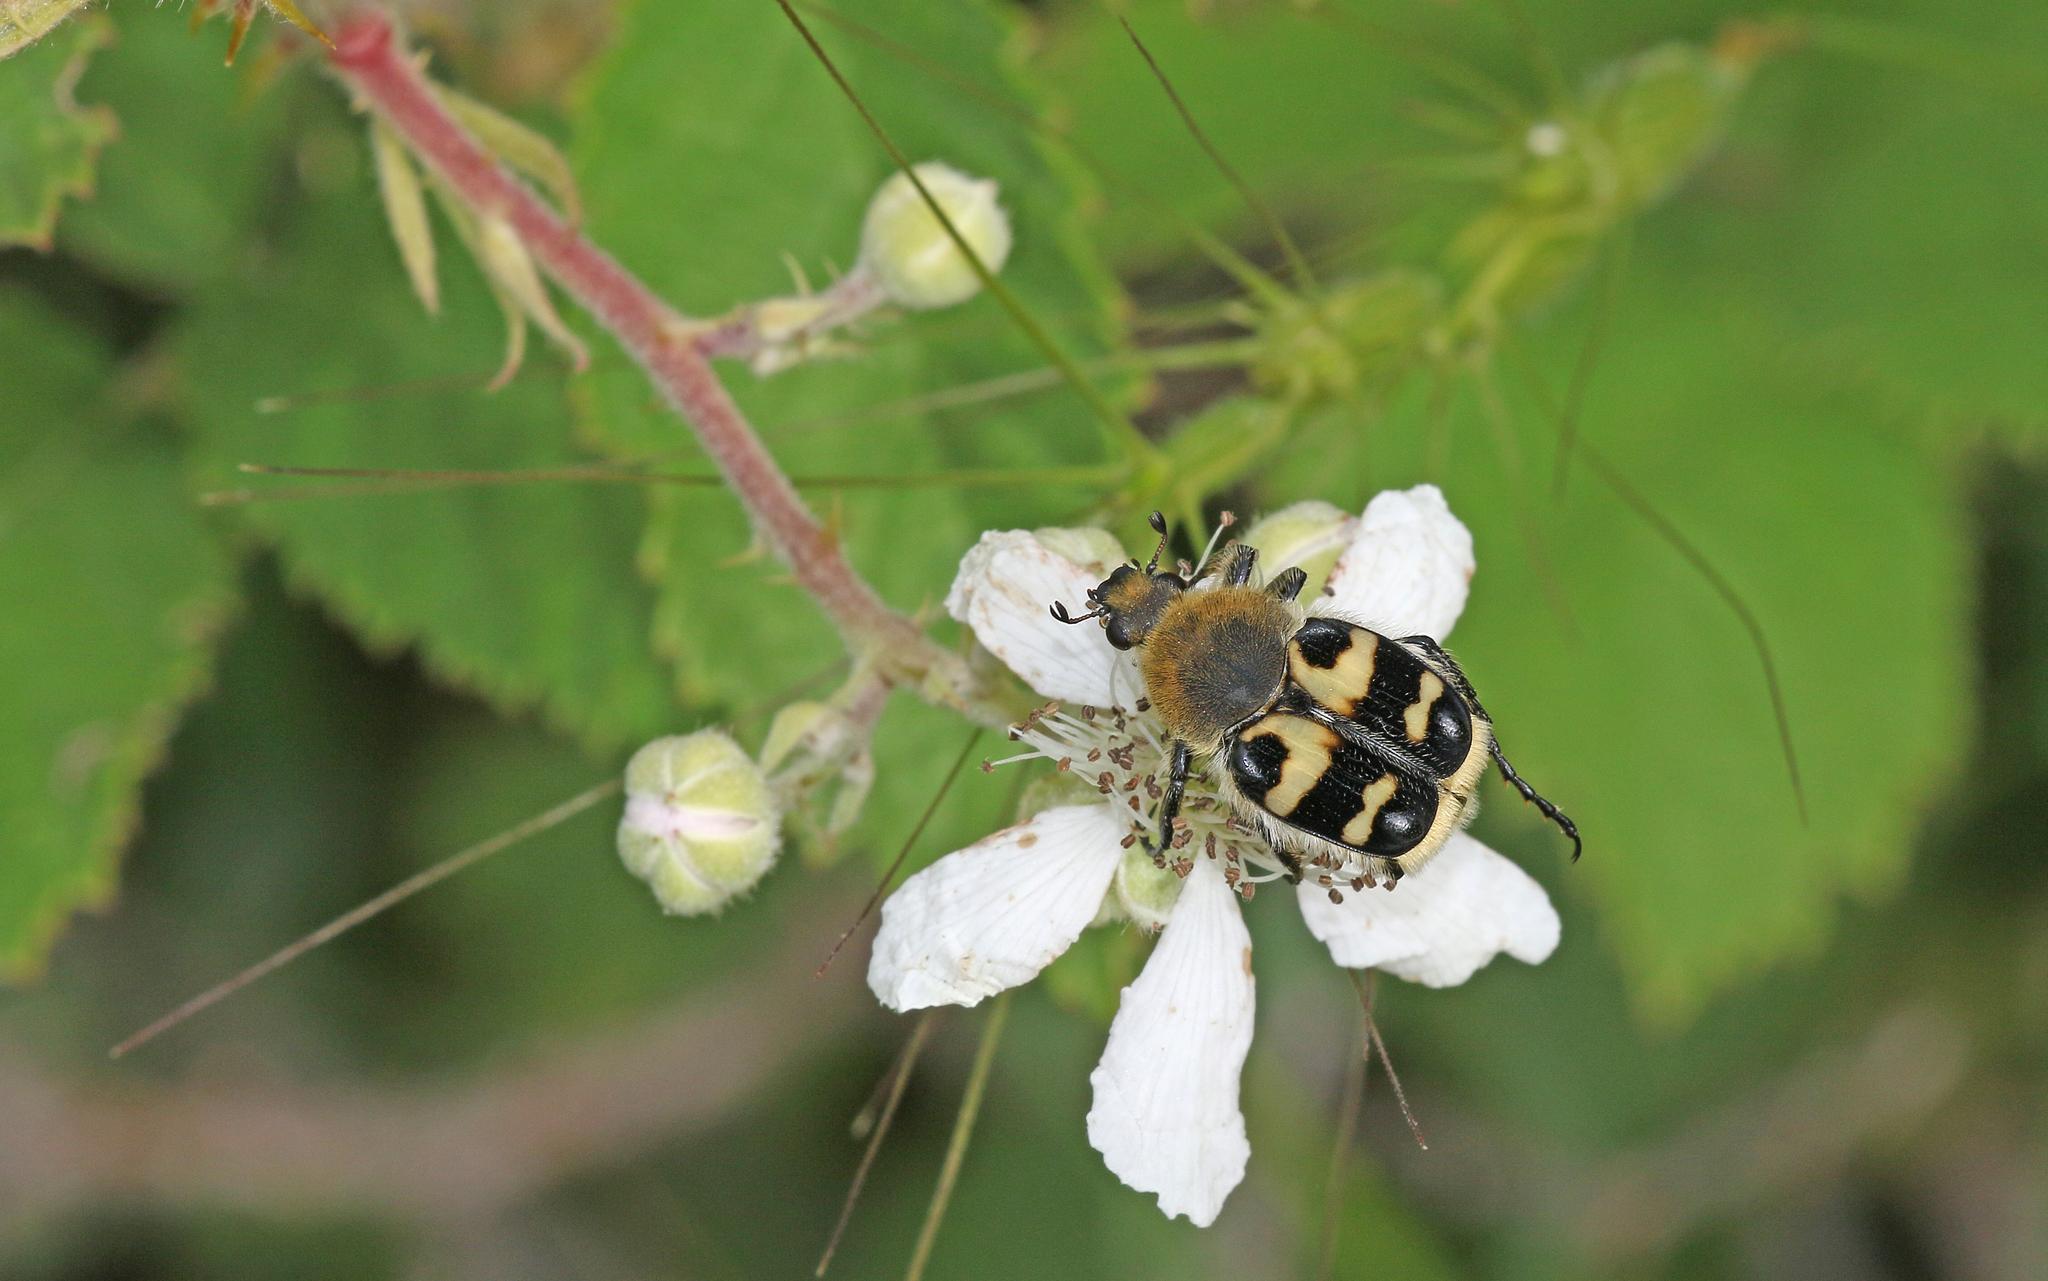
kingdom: Animalia
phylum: Arthropoda
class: Insecta
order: Coleoptera
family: Scarabaeidae
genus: Trichius
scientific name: Trichius sexualis
